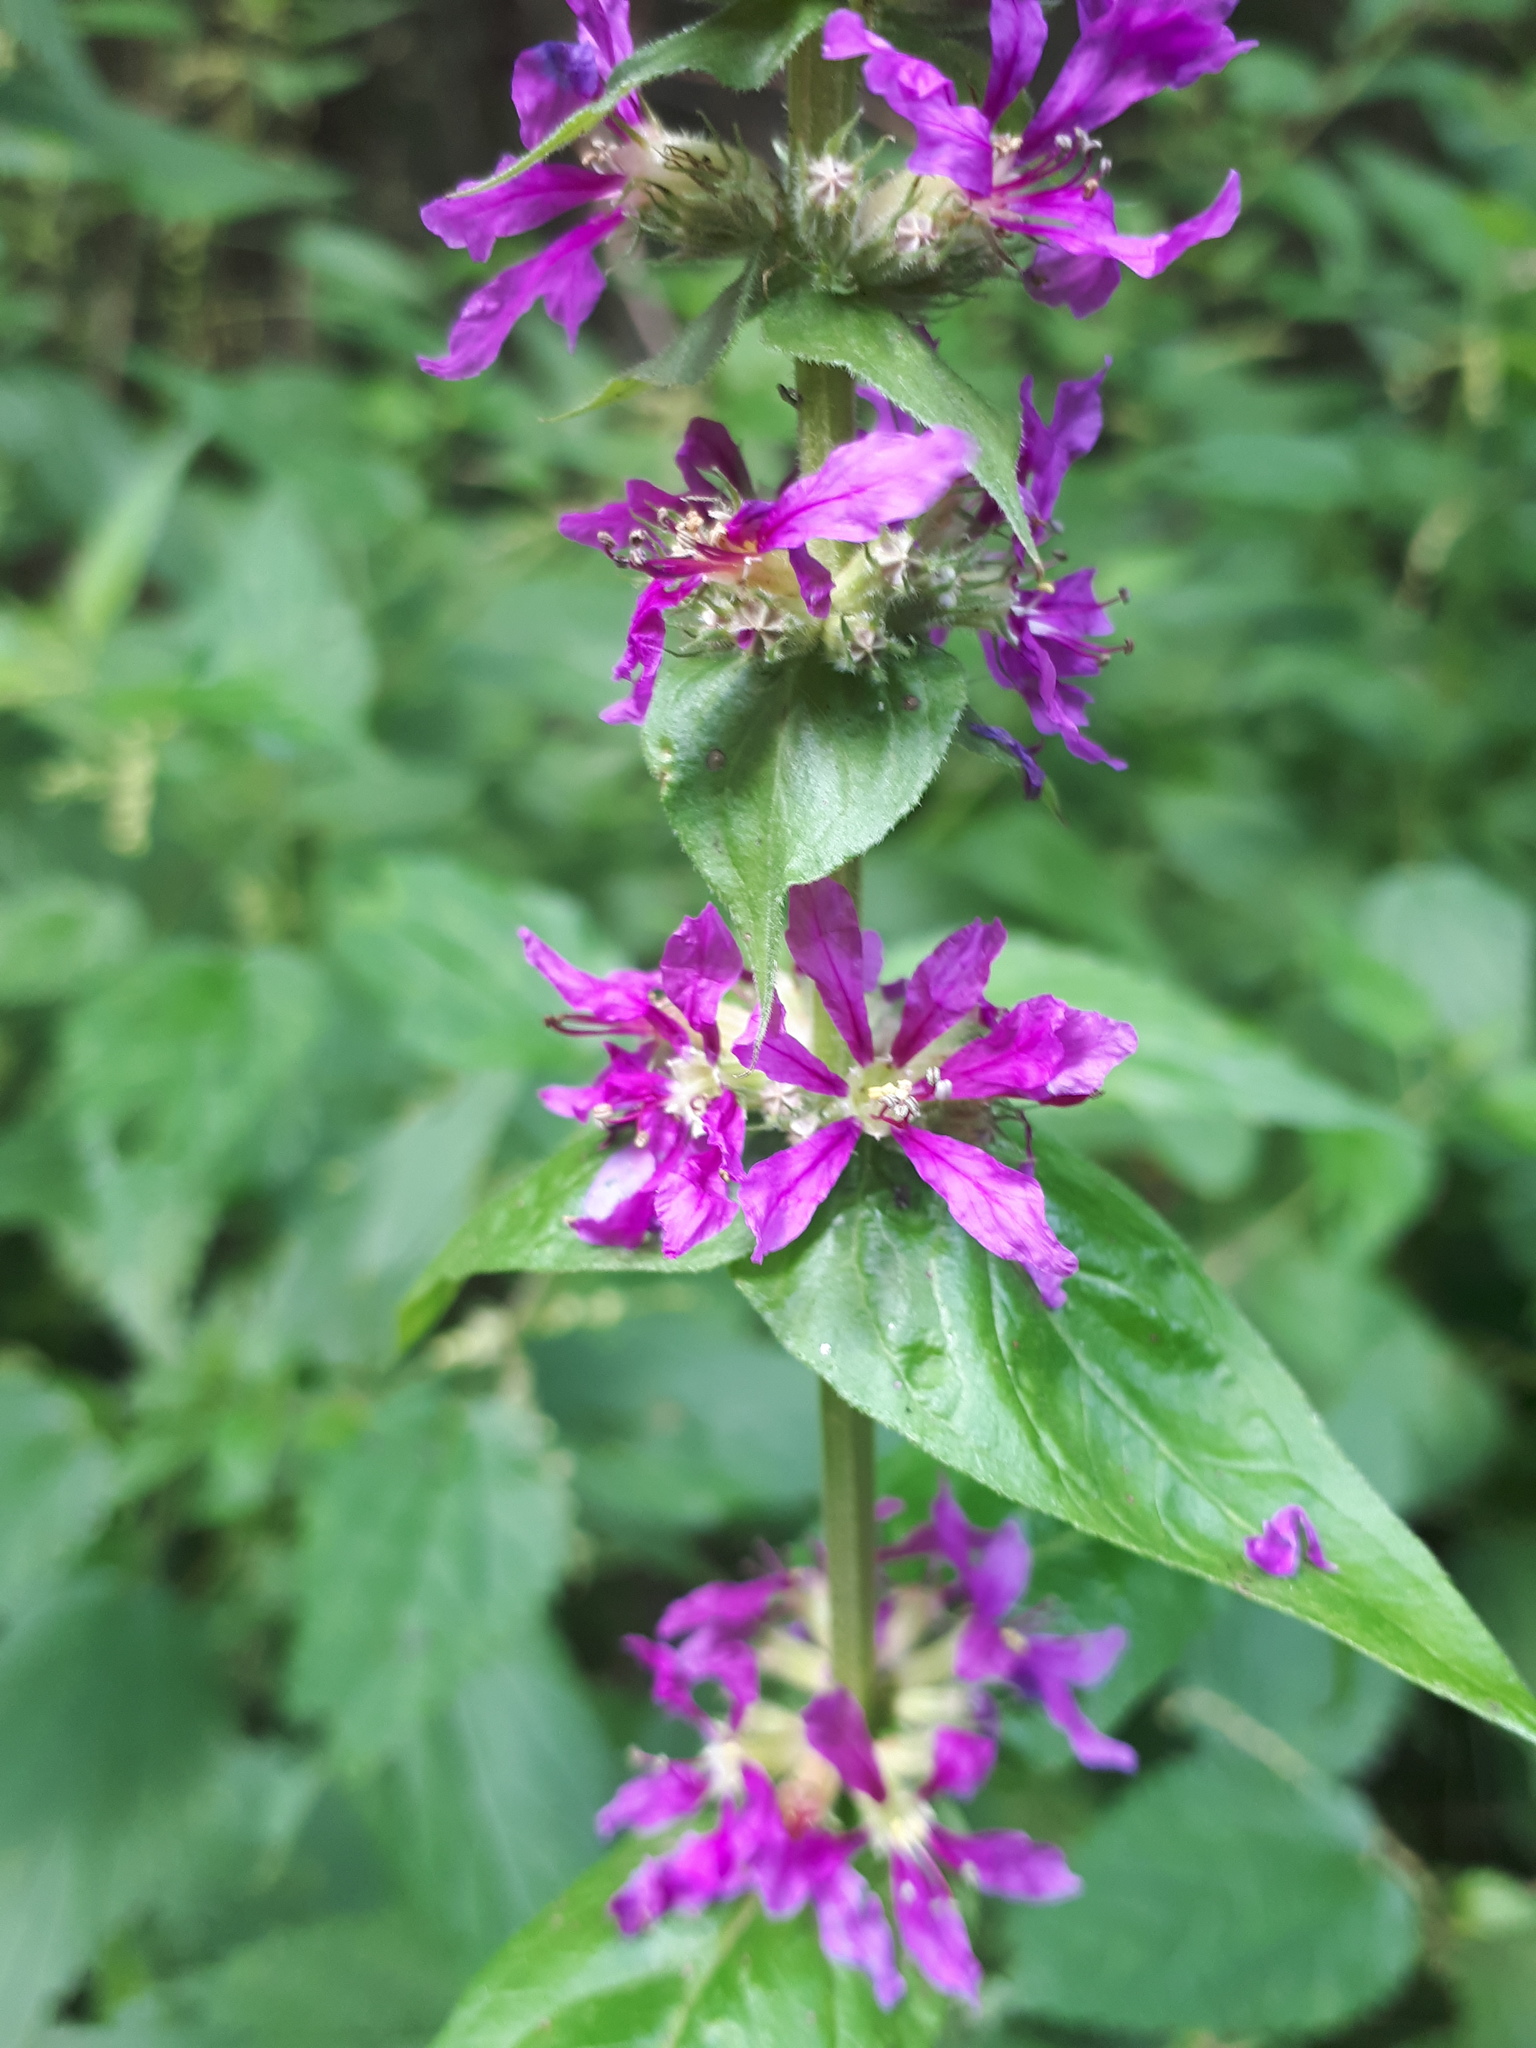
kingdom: Plantae
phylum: Tracheophyta
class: Magnoliopsida
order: Myrtales
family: Lythraceae
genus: Lythrum
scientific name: Lythrum salicaria
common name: Purple loosestrife
